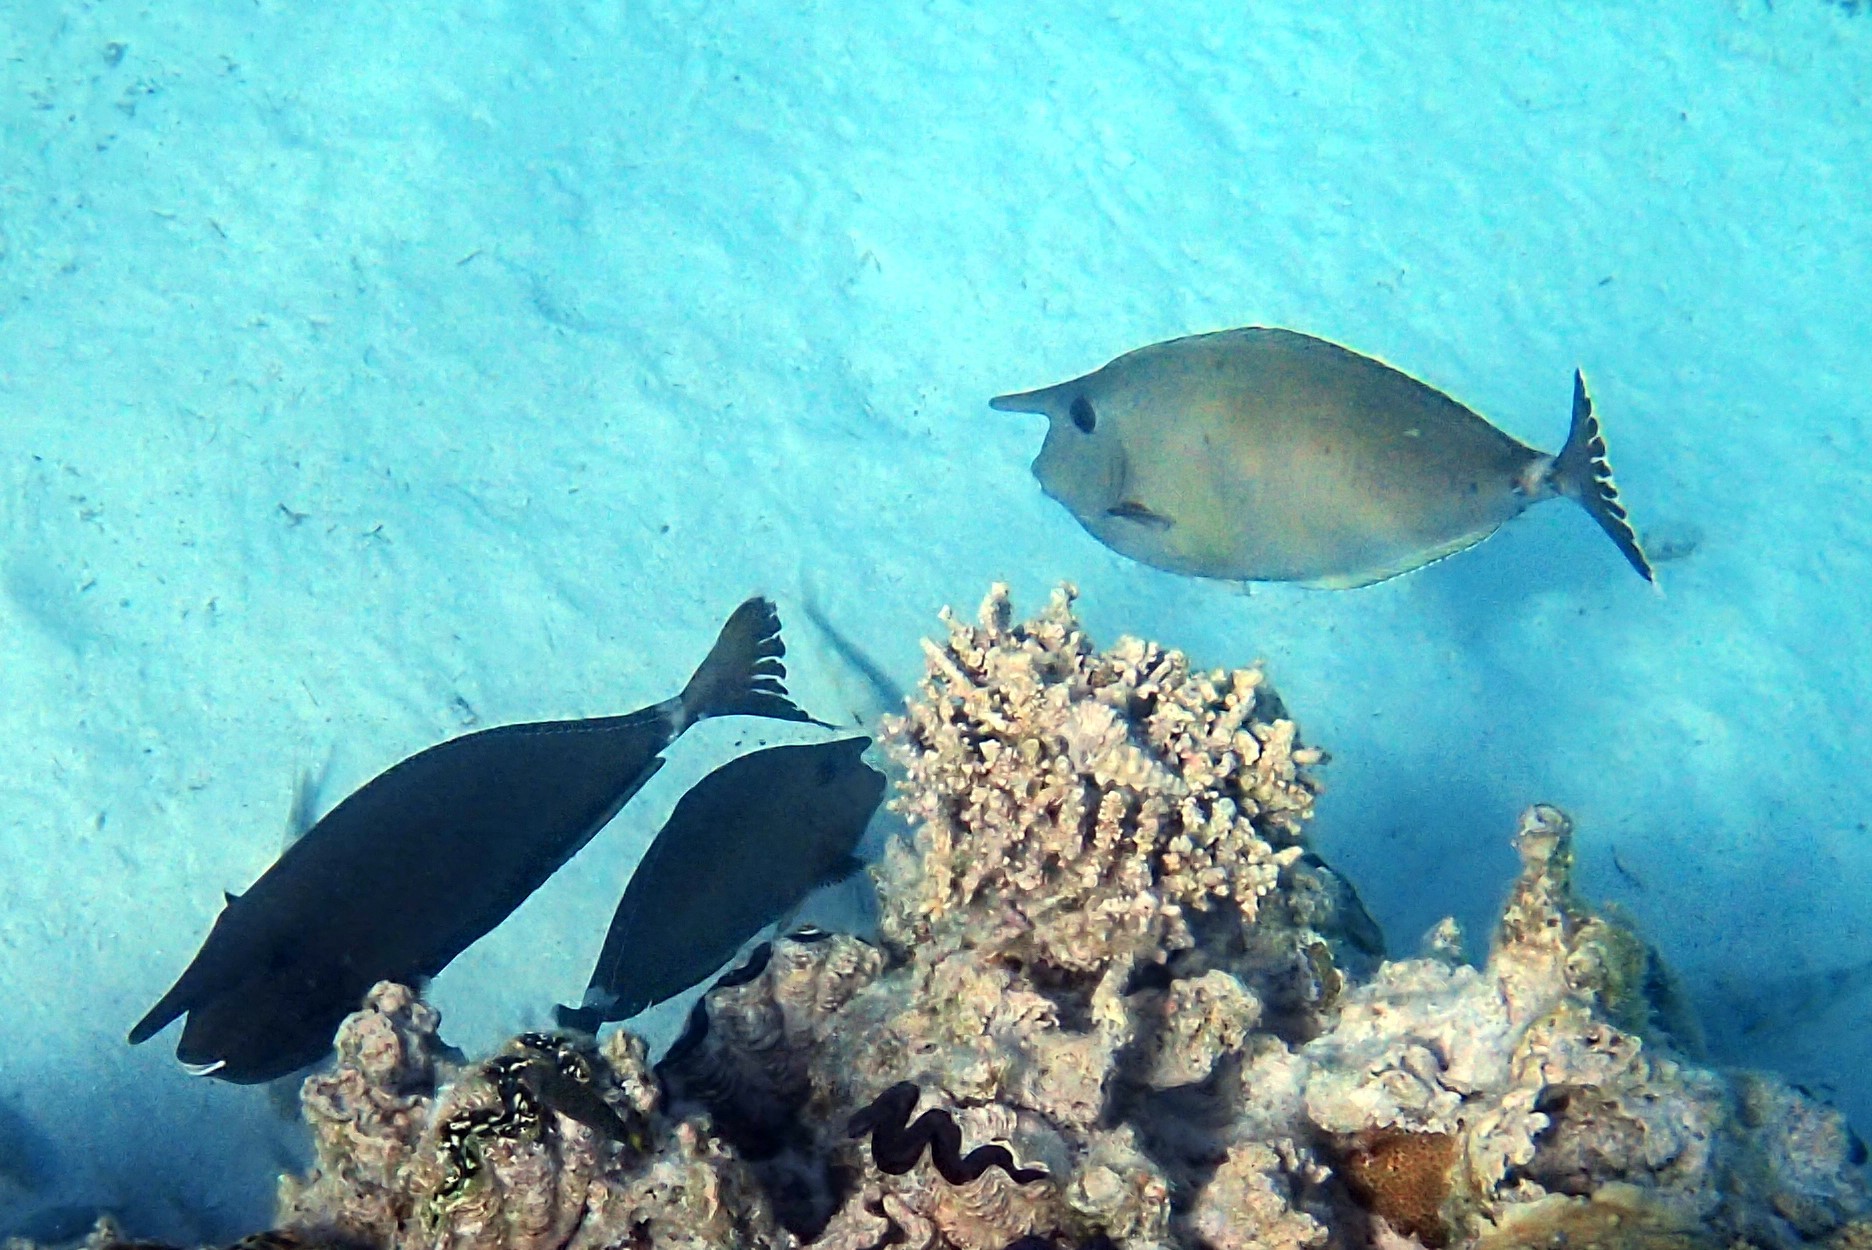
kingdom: Animalia
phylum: Chordata
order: Perciformes
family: Acanthuridae
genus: Naso
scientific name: Naso annulatus
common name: Whitemargin unicornfish
